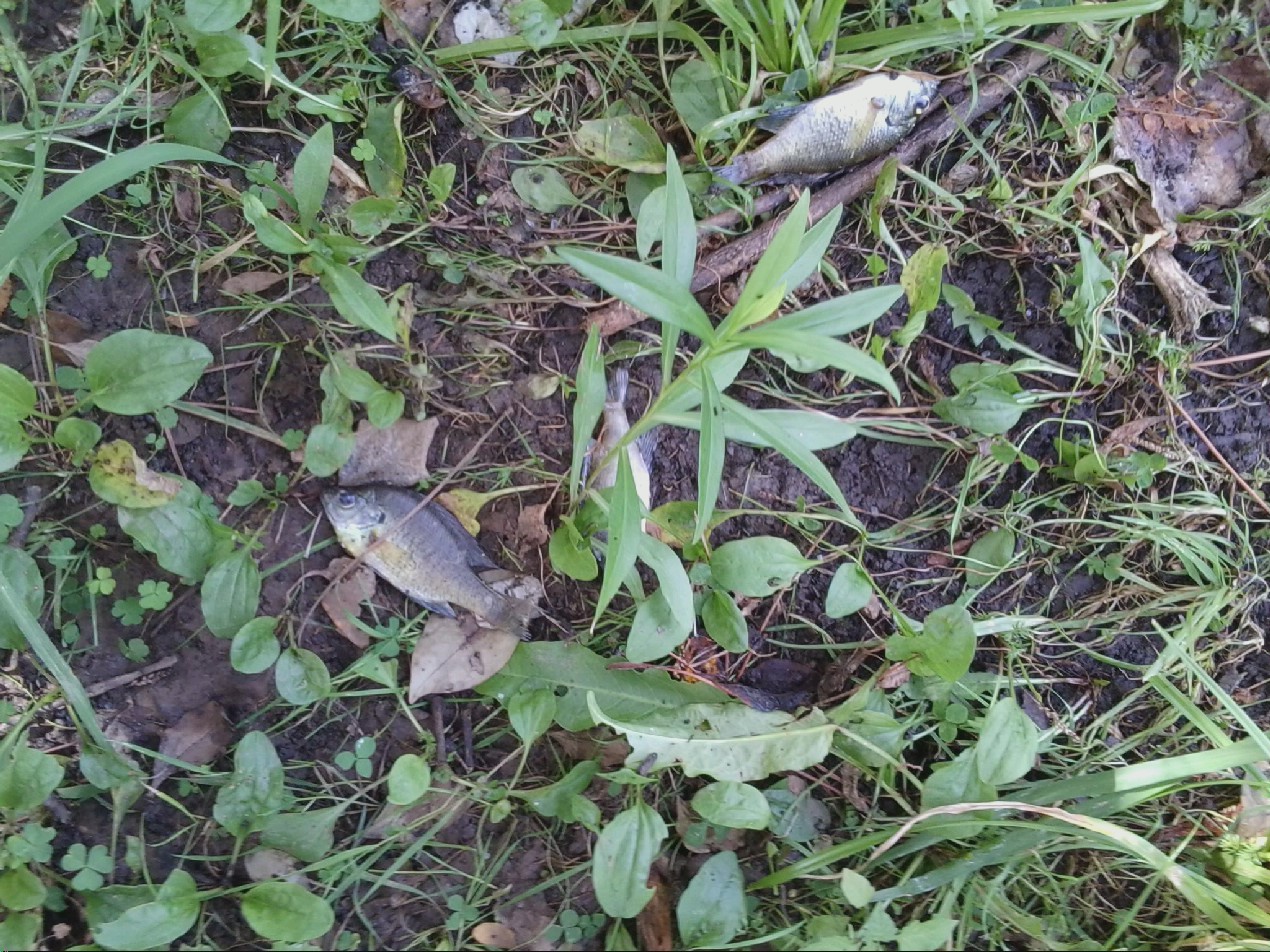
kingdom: Animalia
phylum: Chordata
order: Perciformes
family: Centrarchidae
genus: Lepomis
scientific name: Lepomis macrochirus
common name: Bluegill
